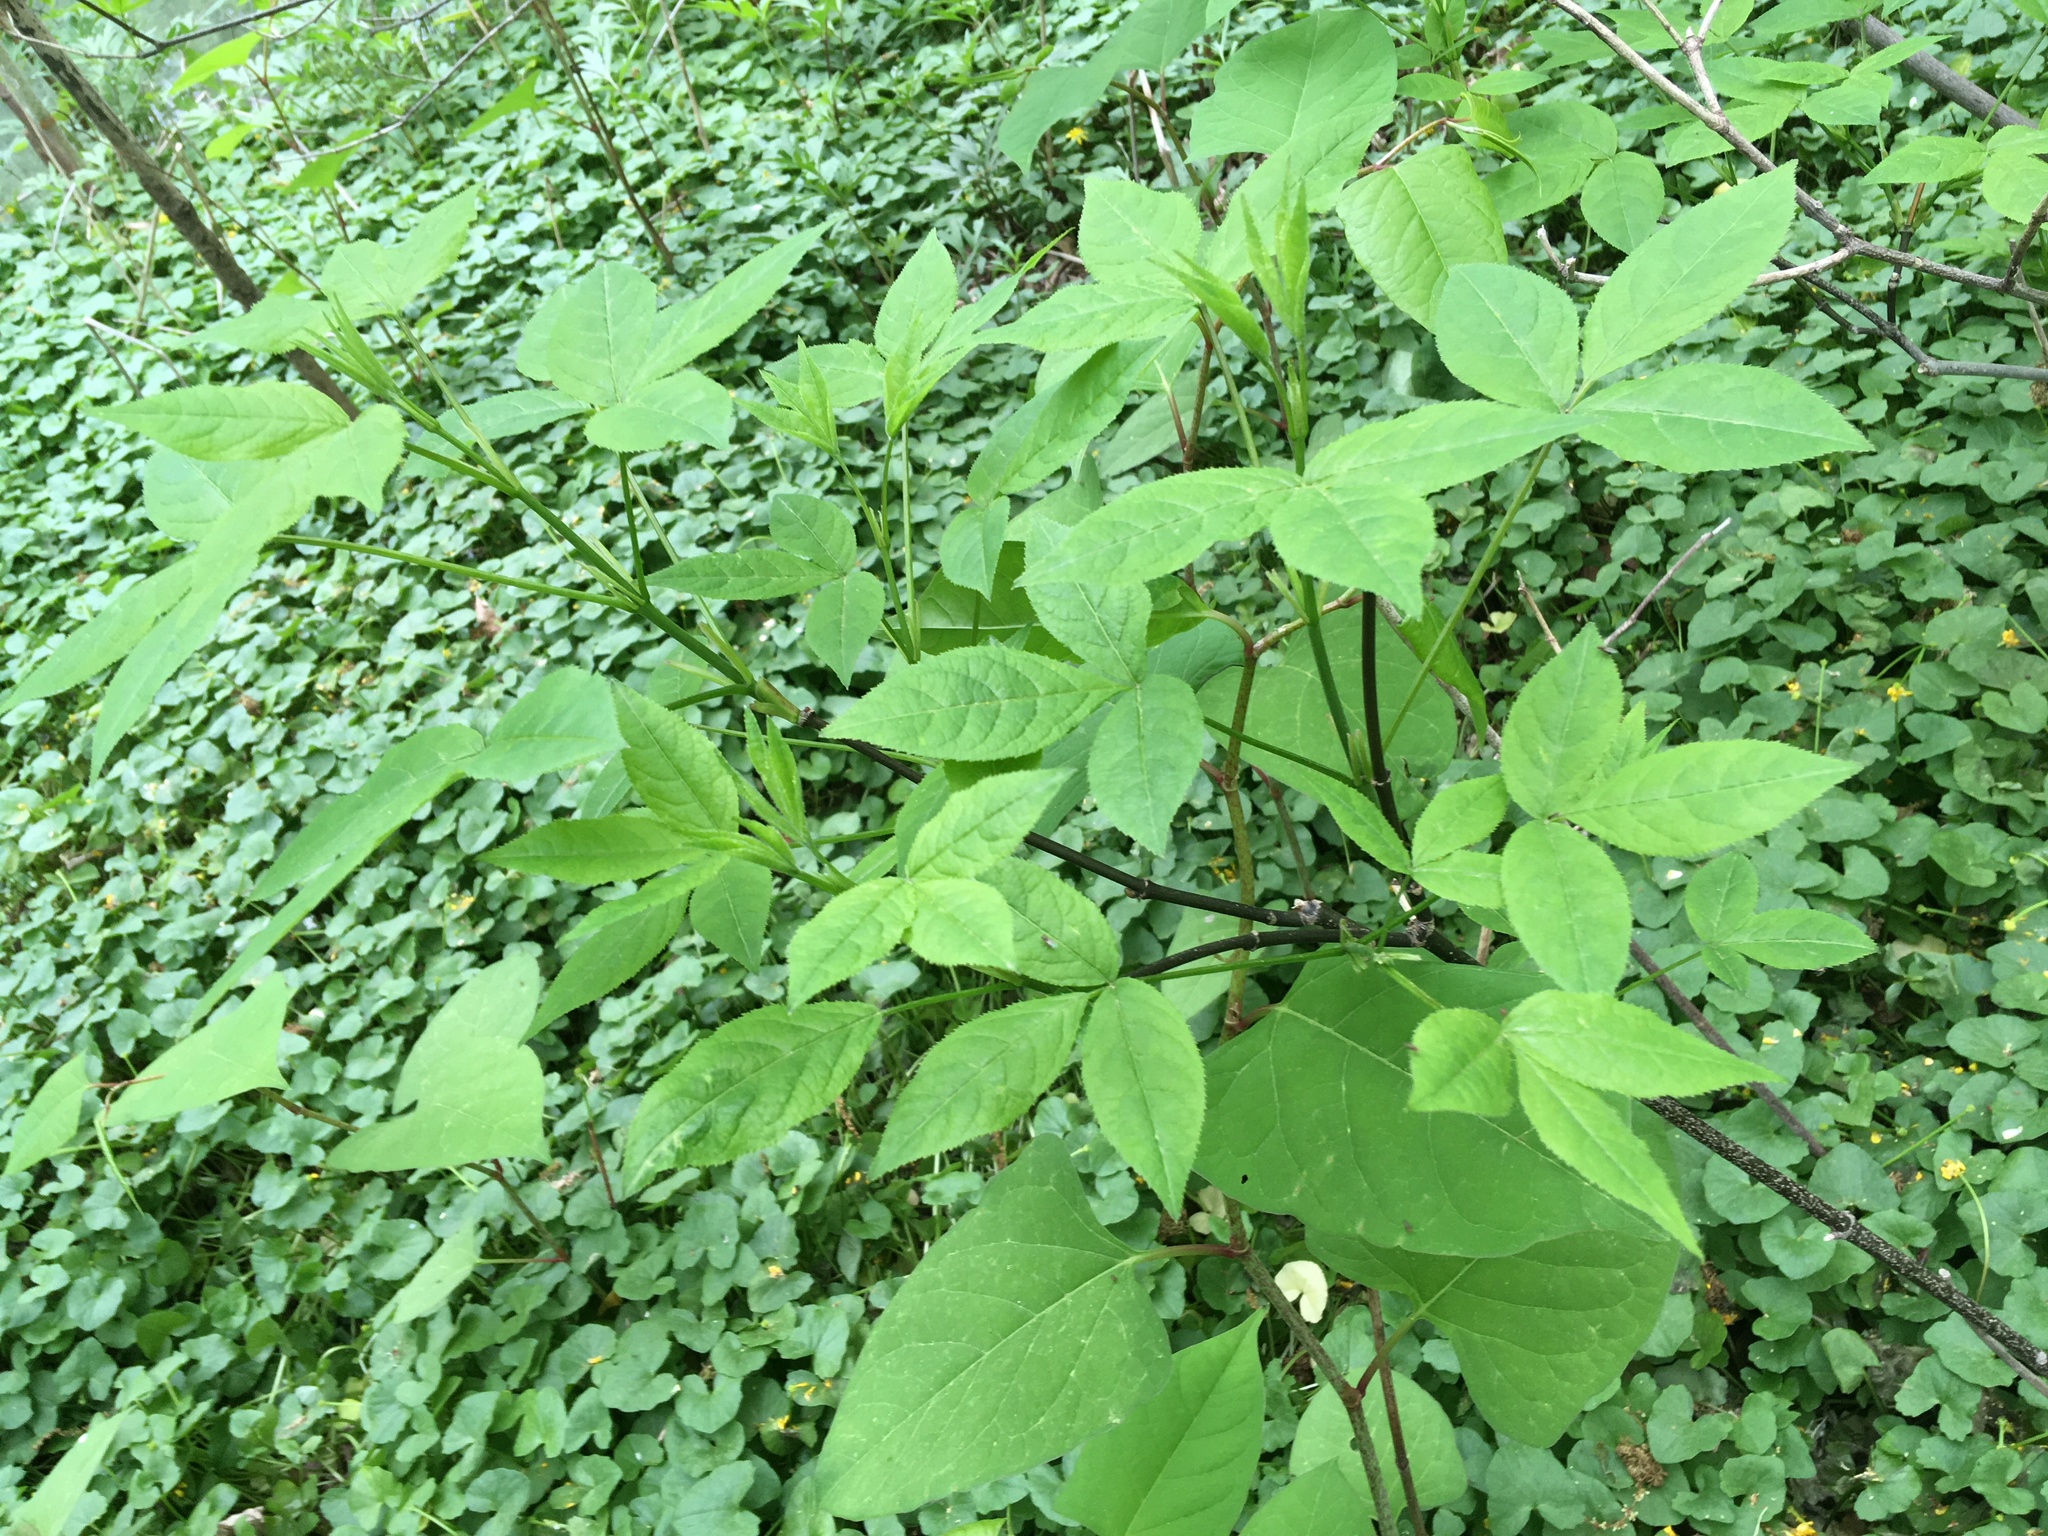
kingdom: Plantae
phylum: Tracheophyta
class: Magnoliopsida
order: Crossosomatales
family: Staphyleaceae
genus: Staphylea
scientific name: Staphylea trifolia
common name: American bladdernut
